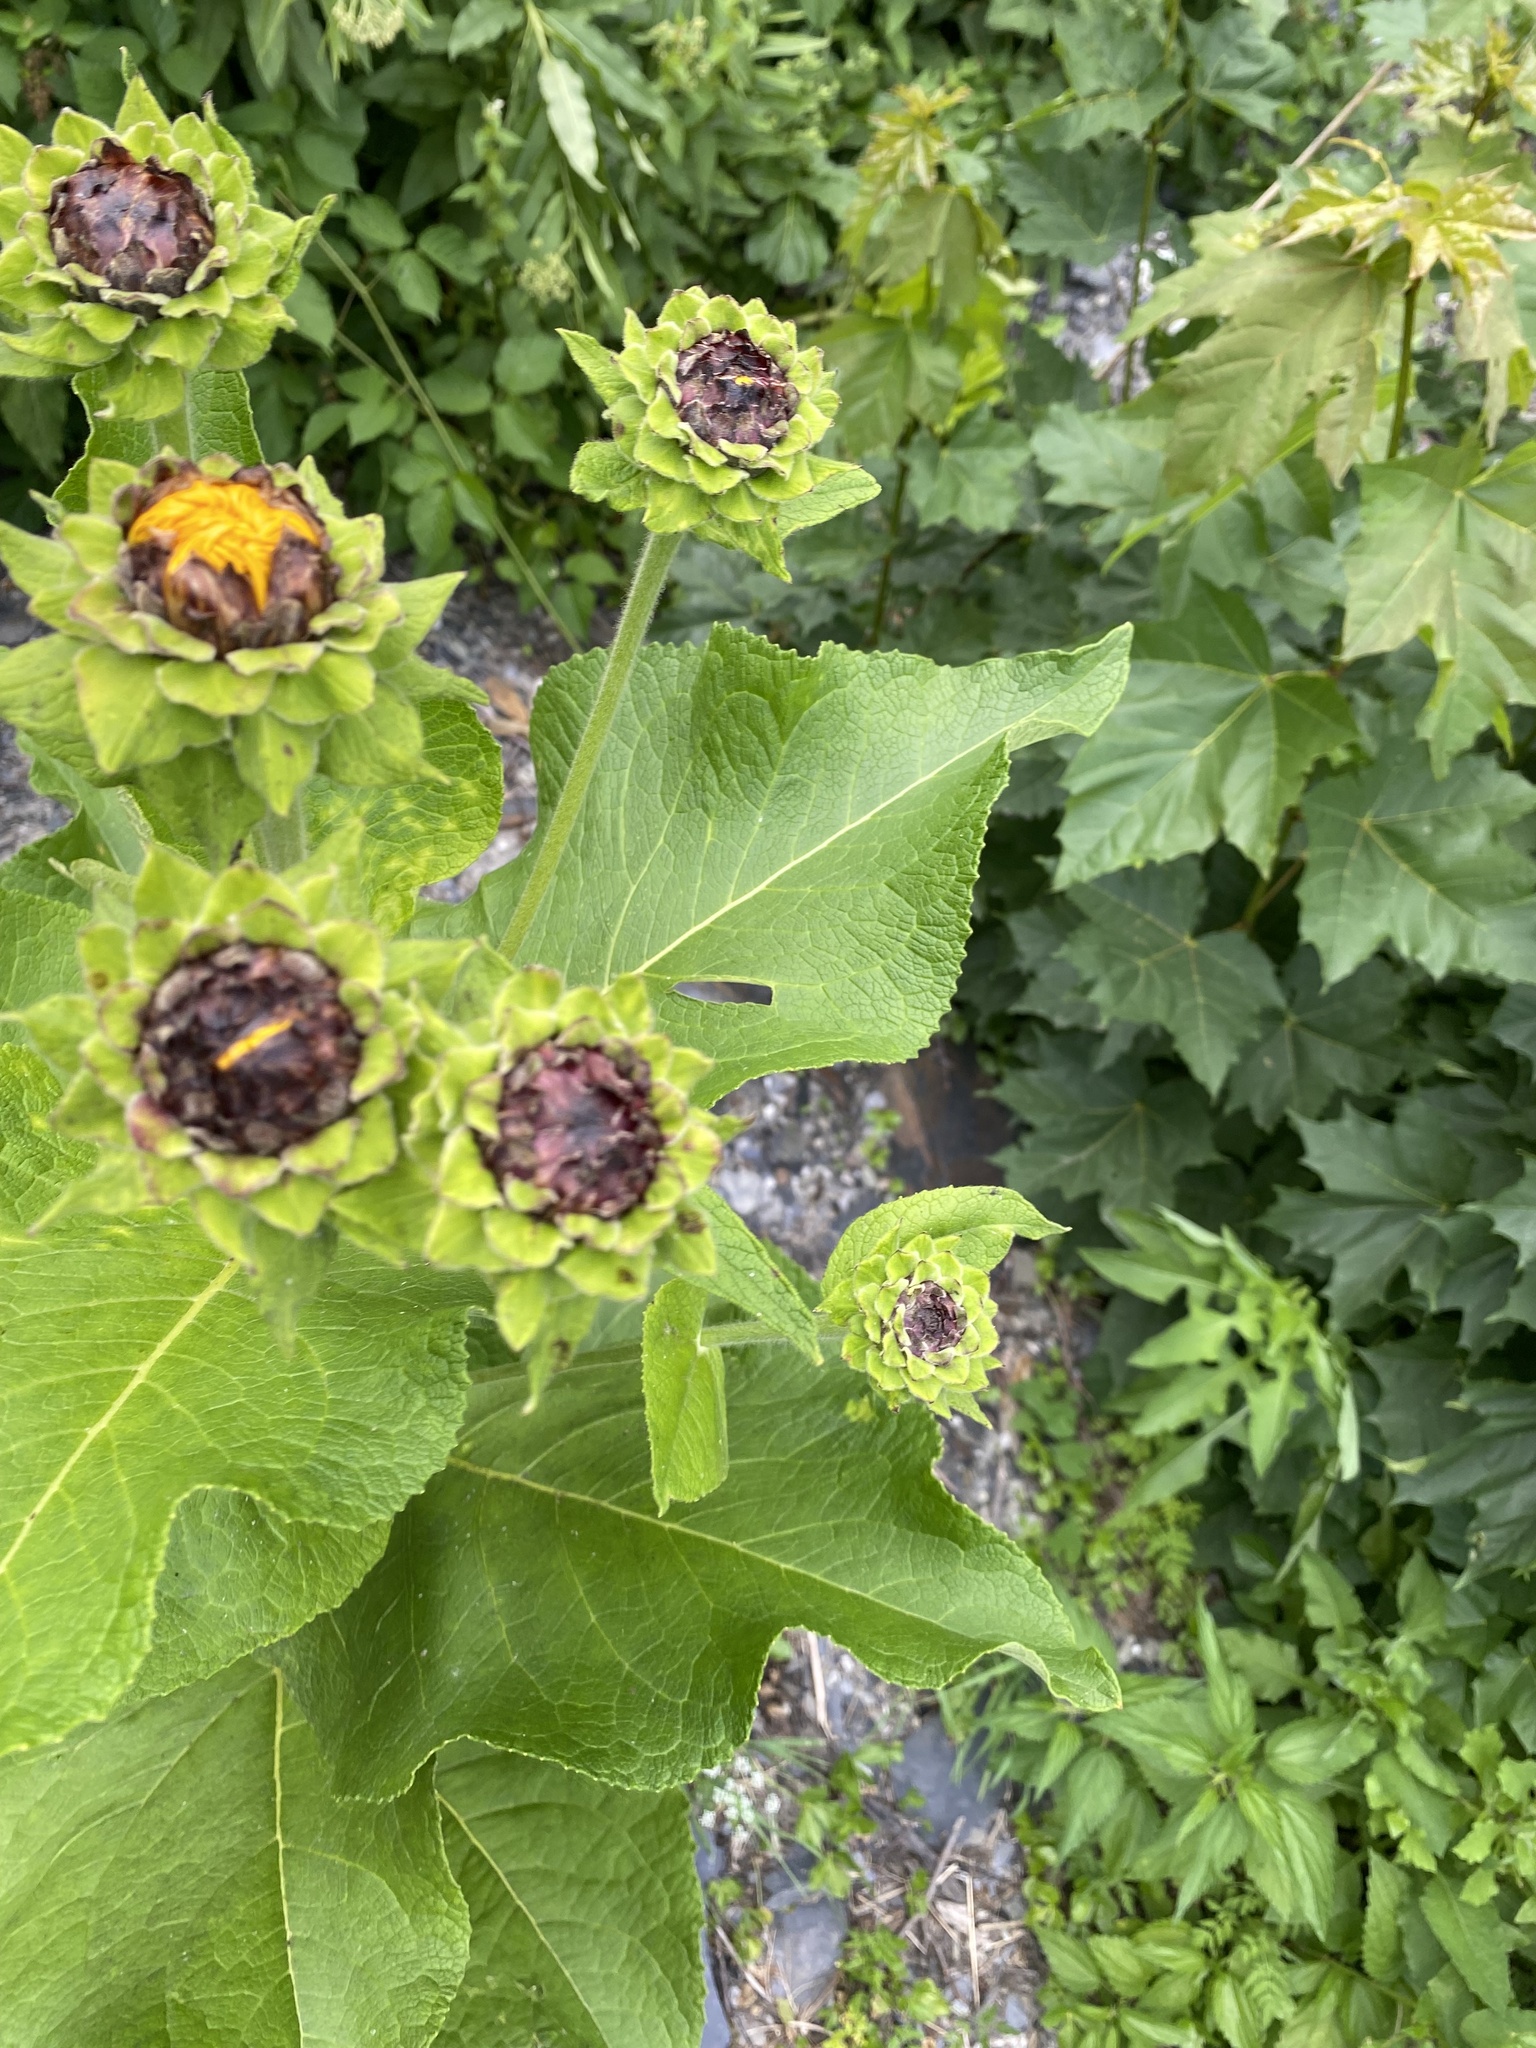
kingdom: Plantae
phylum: Tracheophyta
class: Magnoliopsida
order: Asterales
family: Asteraceae
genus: Inula
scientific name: Inula magnifica
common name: Giant fleabane
